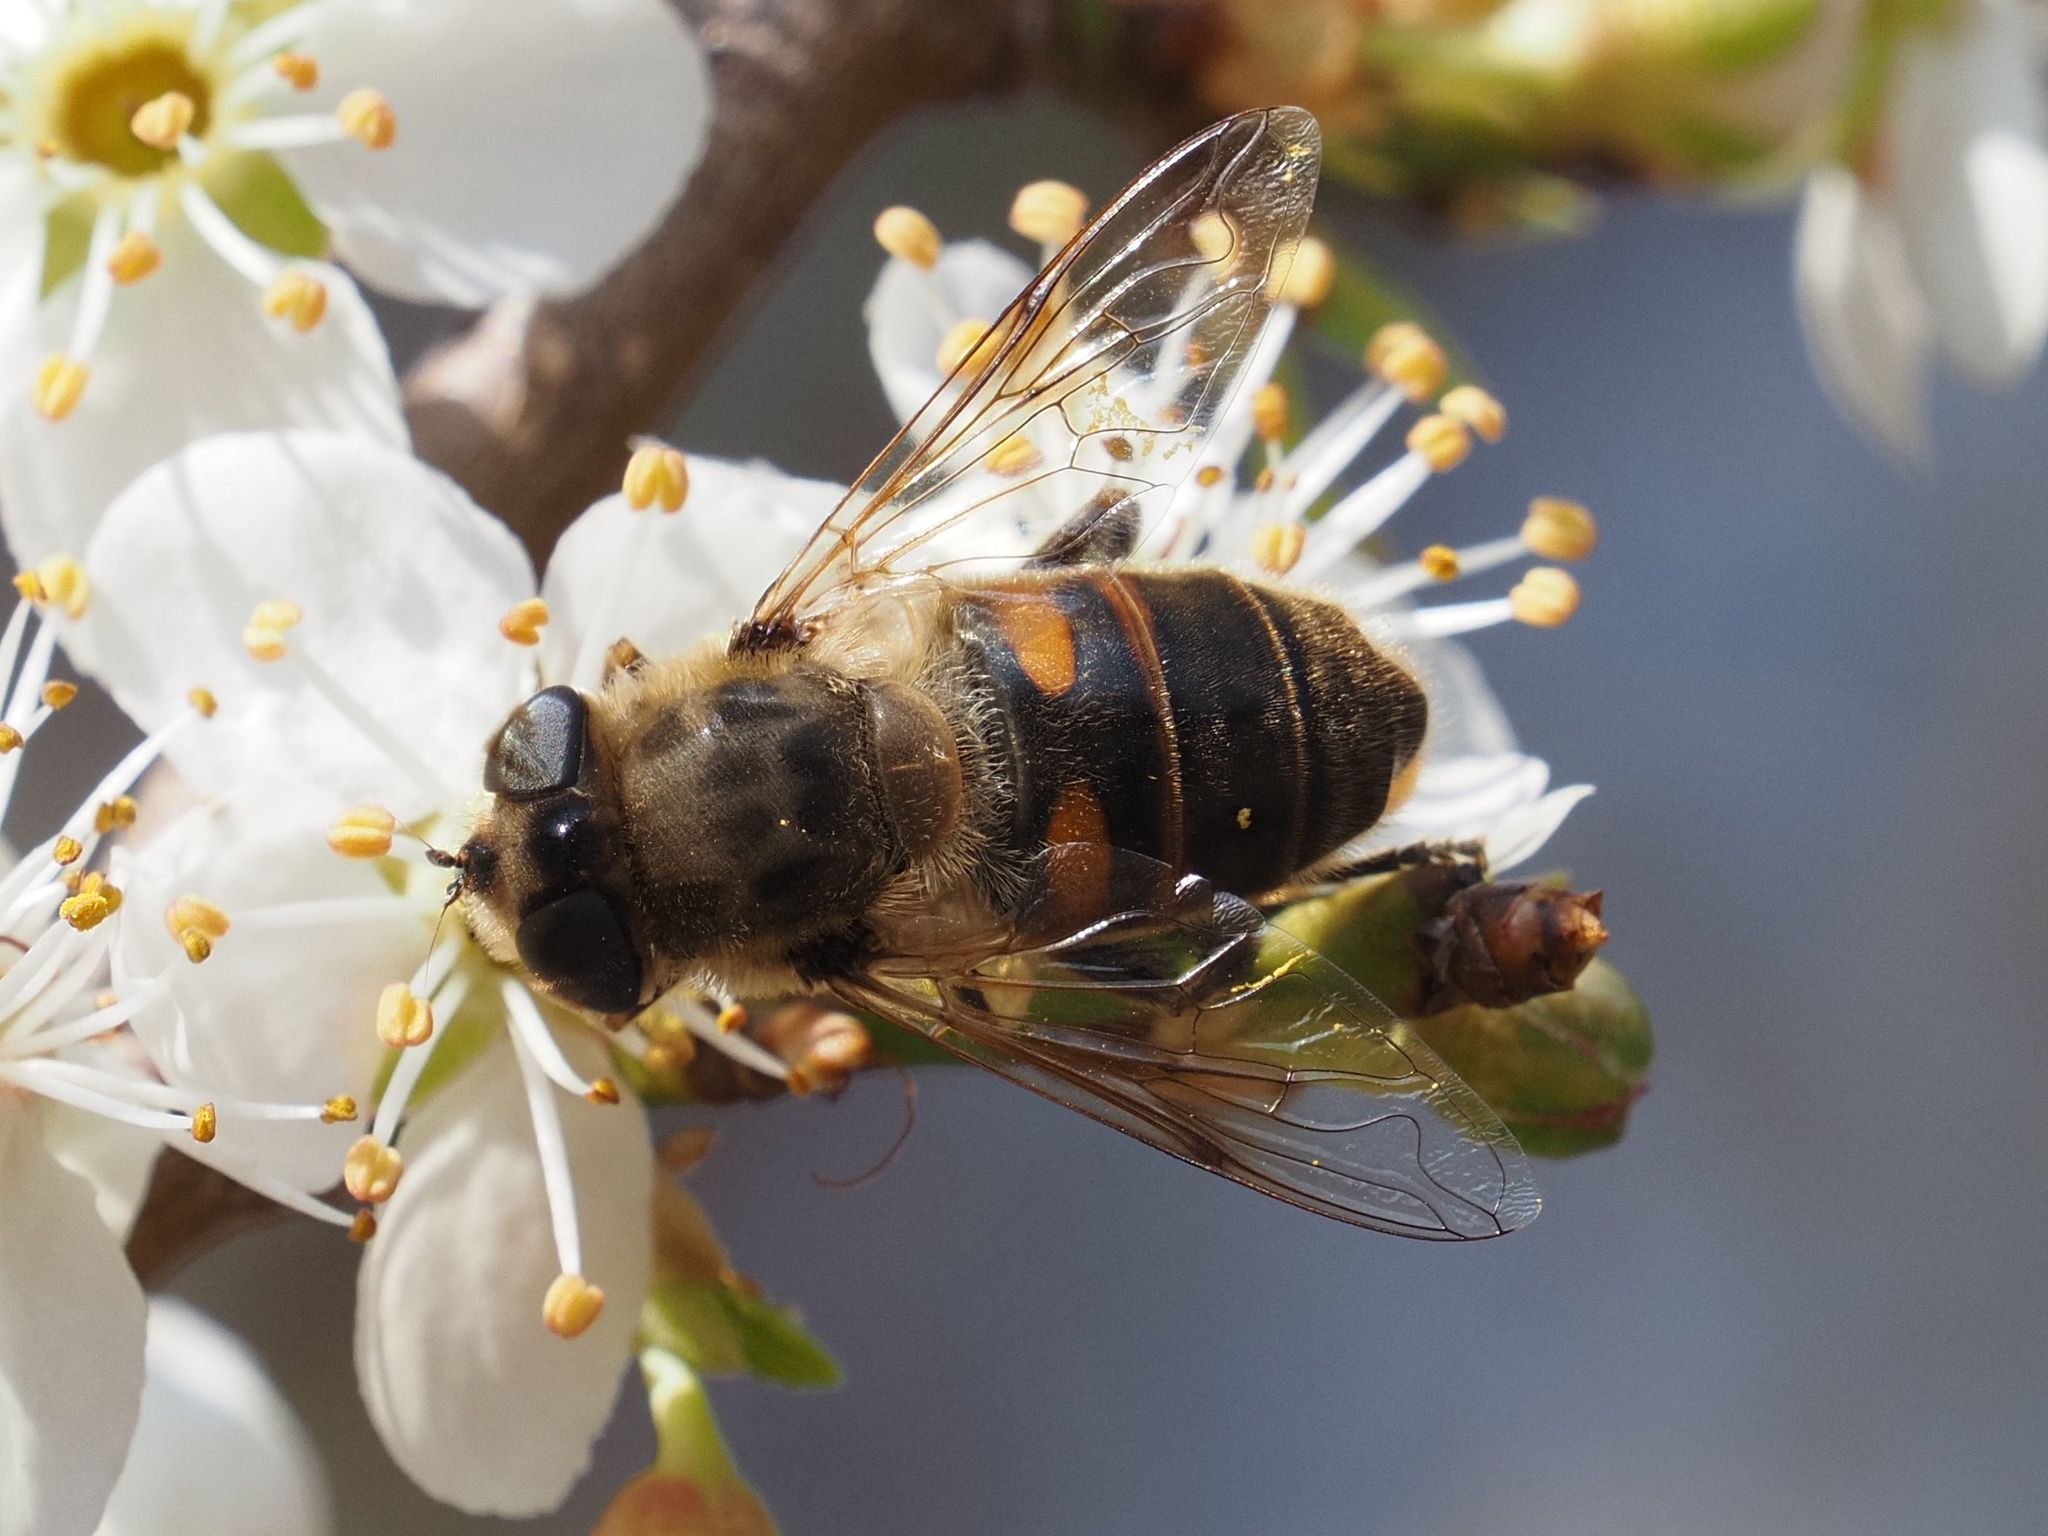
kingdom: Animalia
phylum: Arthropoda
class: Insecta
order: Diptera
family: Syrphidae
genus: Eristalis
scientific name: Eristalis tenax
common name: Drone fly
